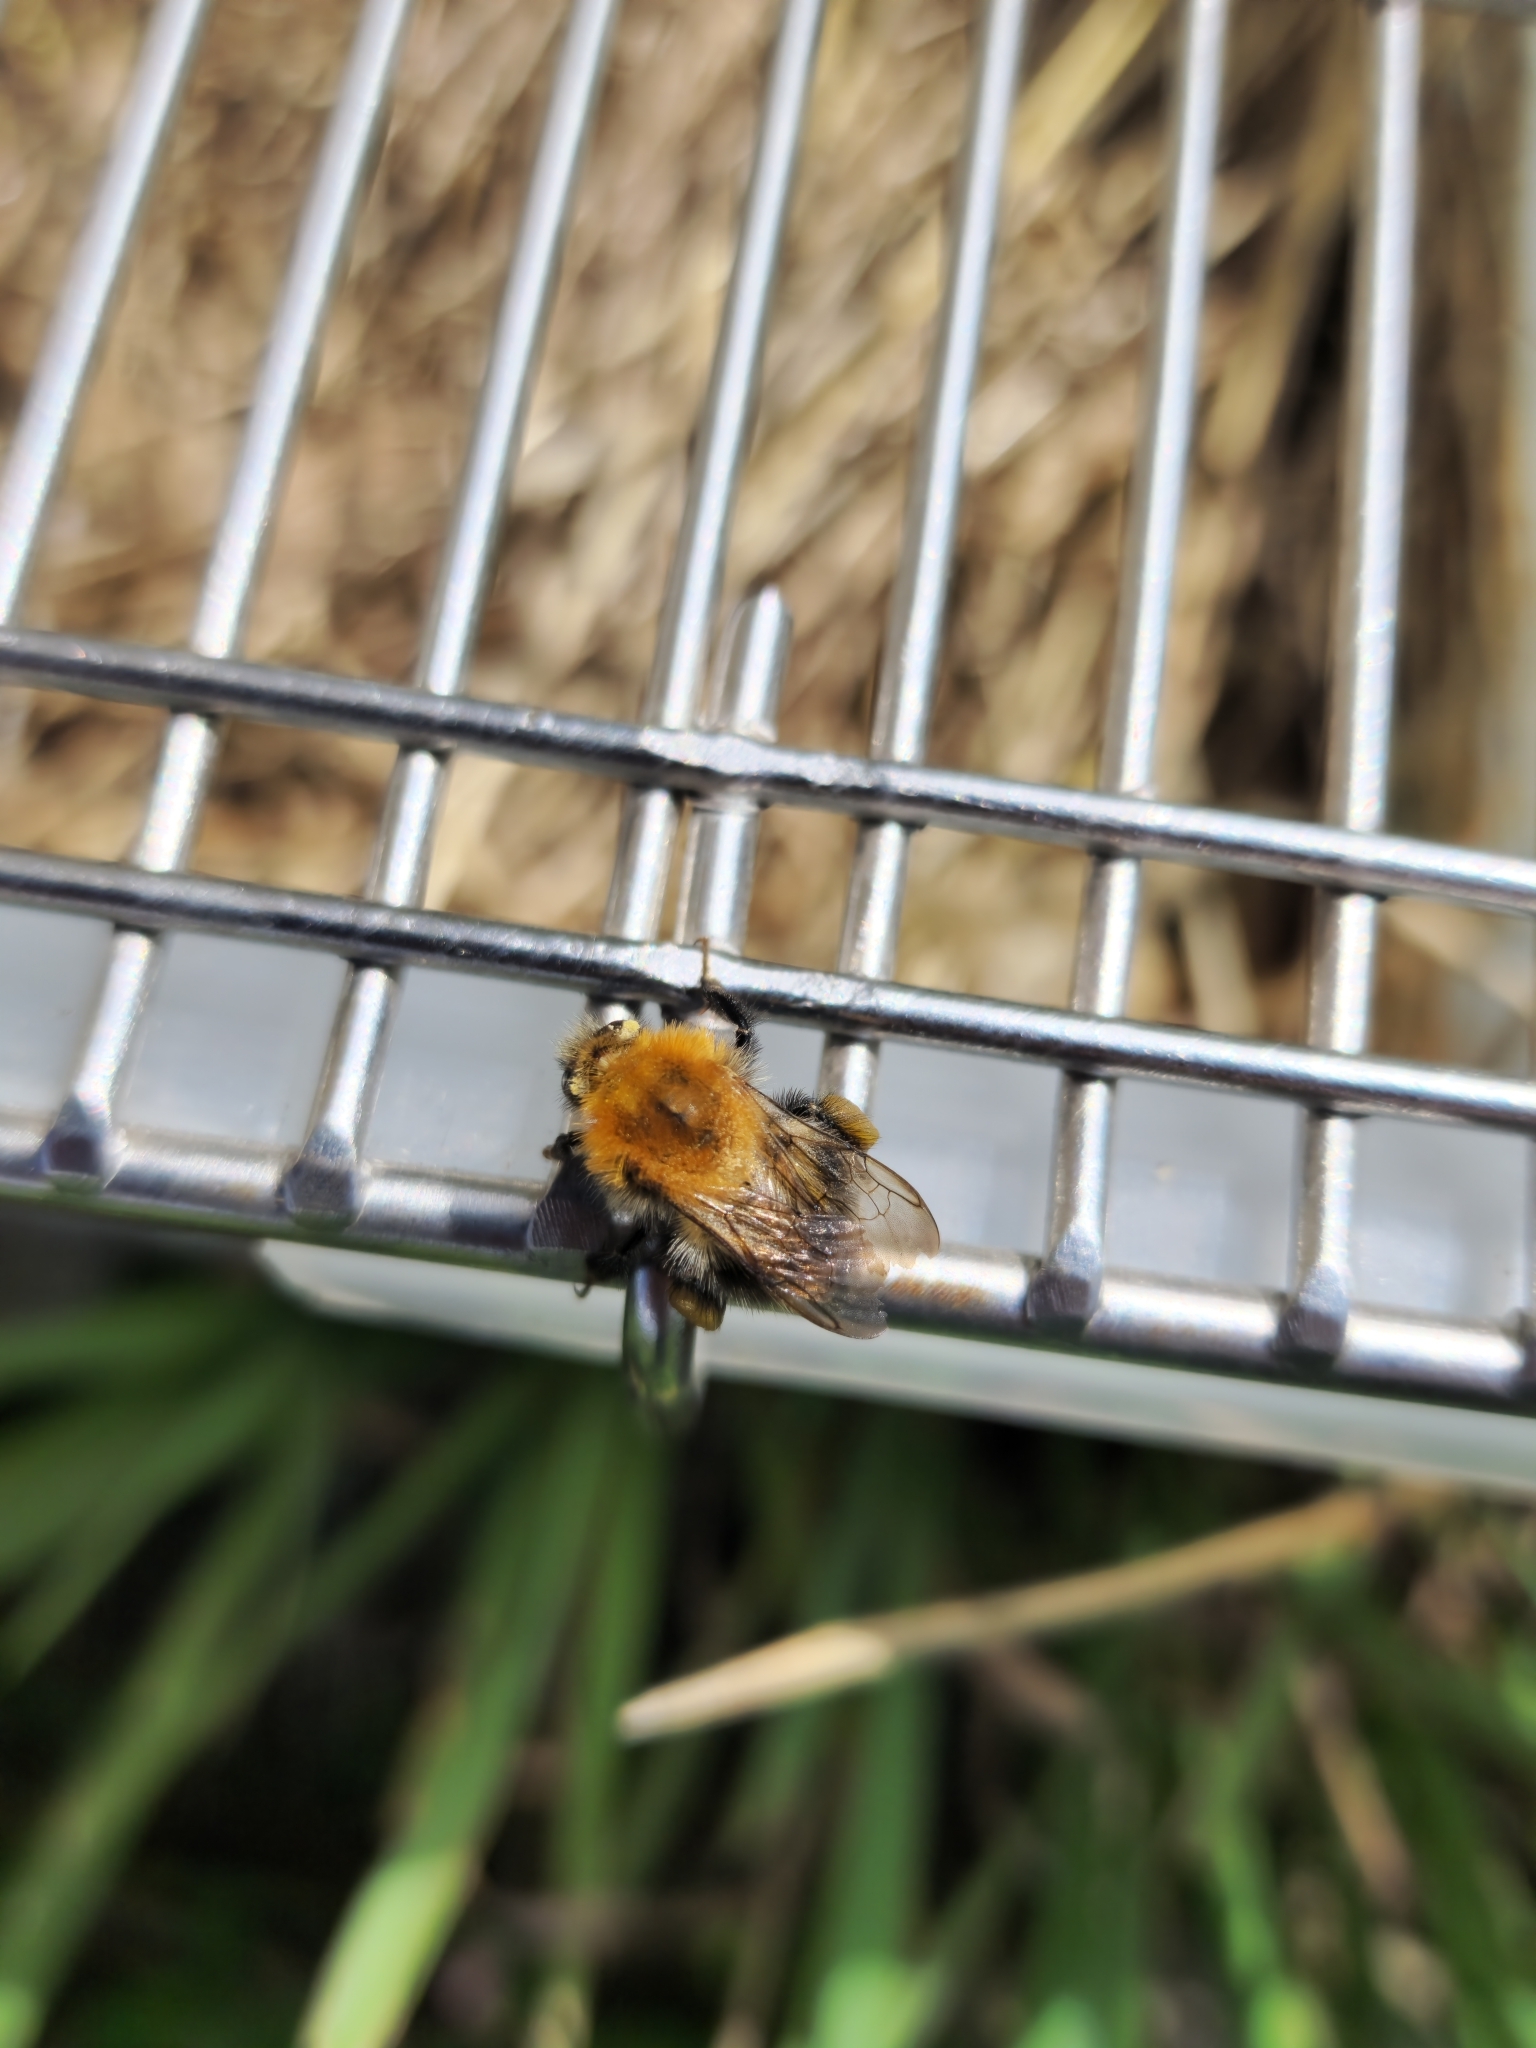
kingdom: Animalia
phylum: Arthropoda
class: Insecta
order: Hymenoptera
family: Apidae
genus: Bombus
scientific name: Bombus pascuorum
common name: Common carder bee
